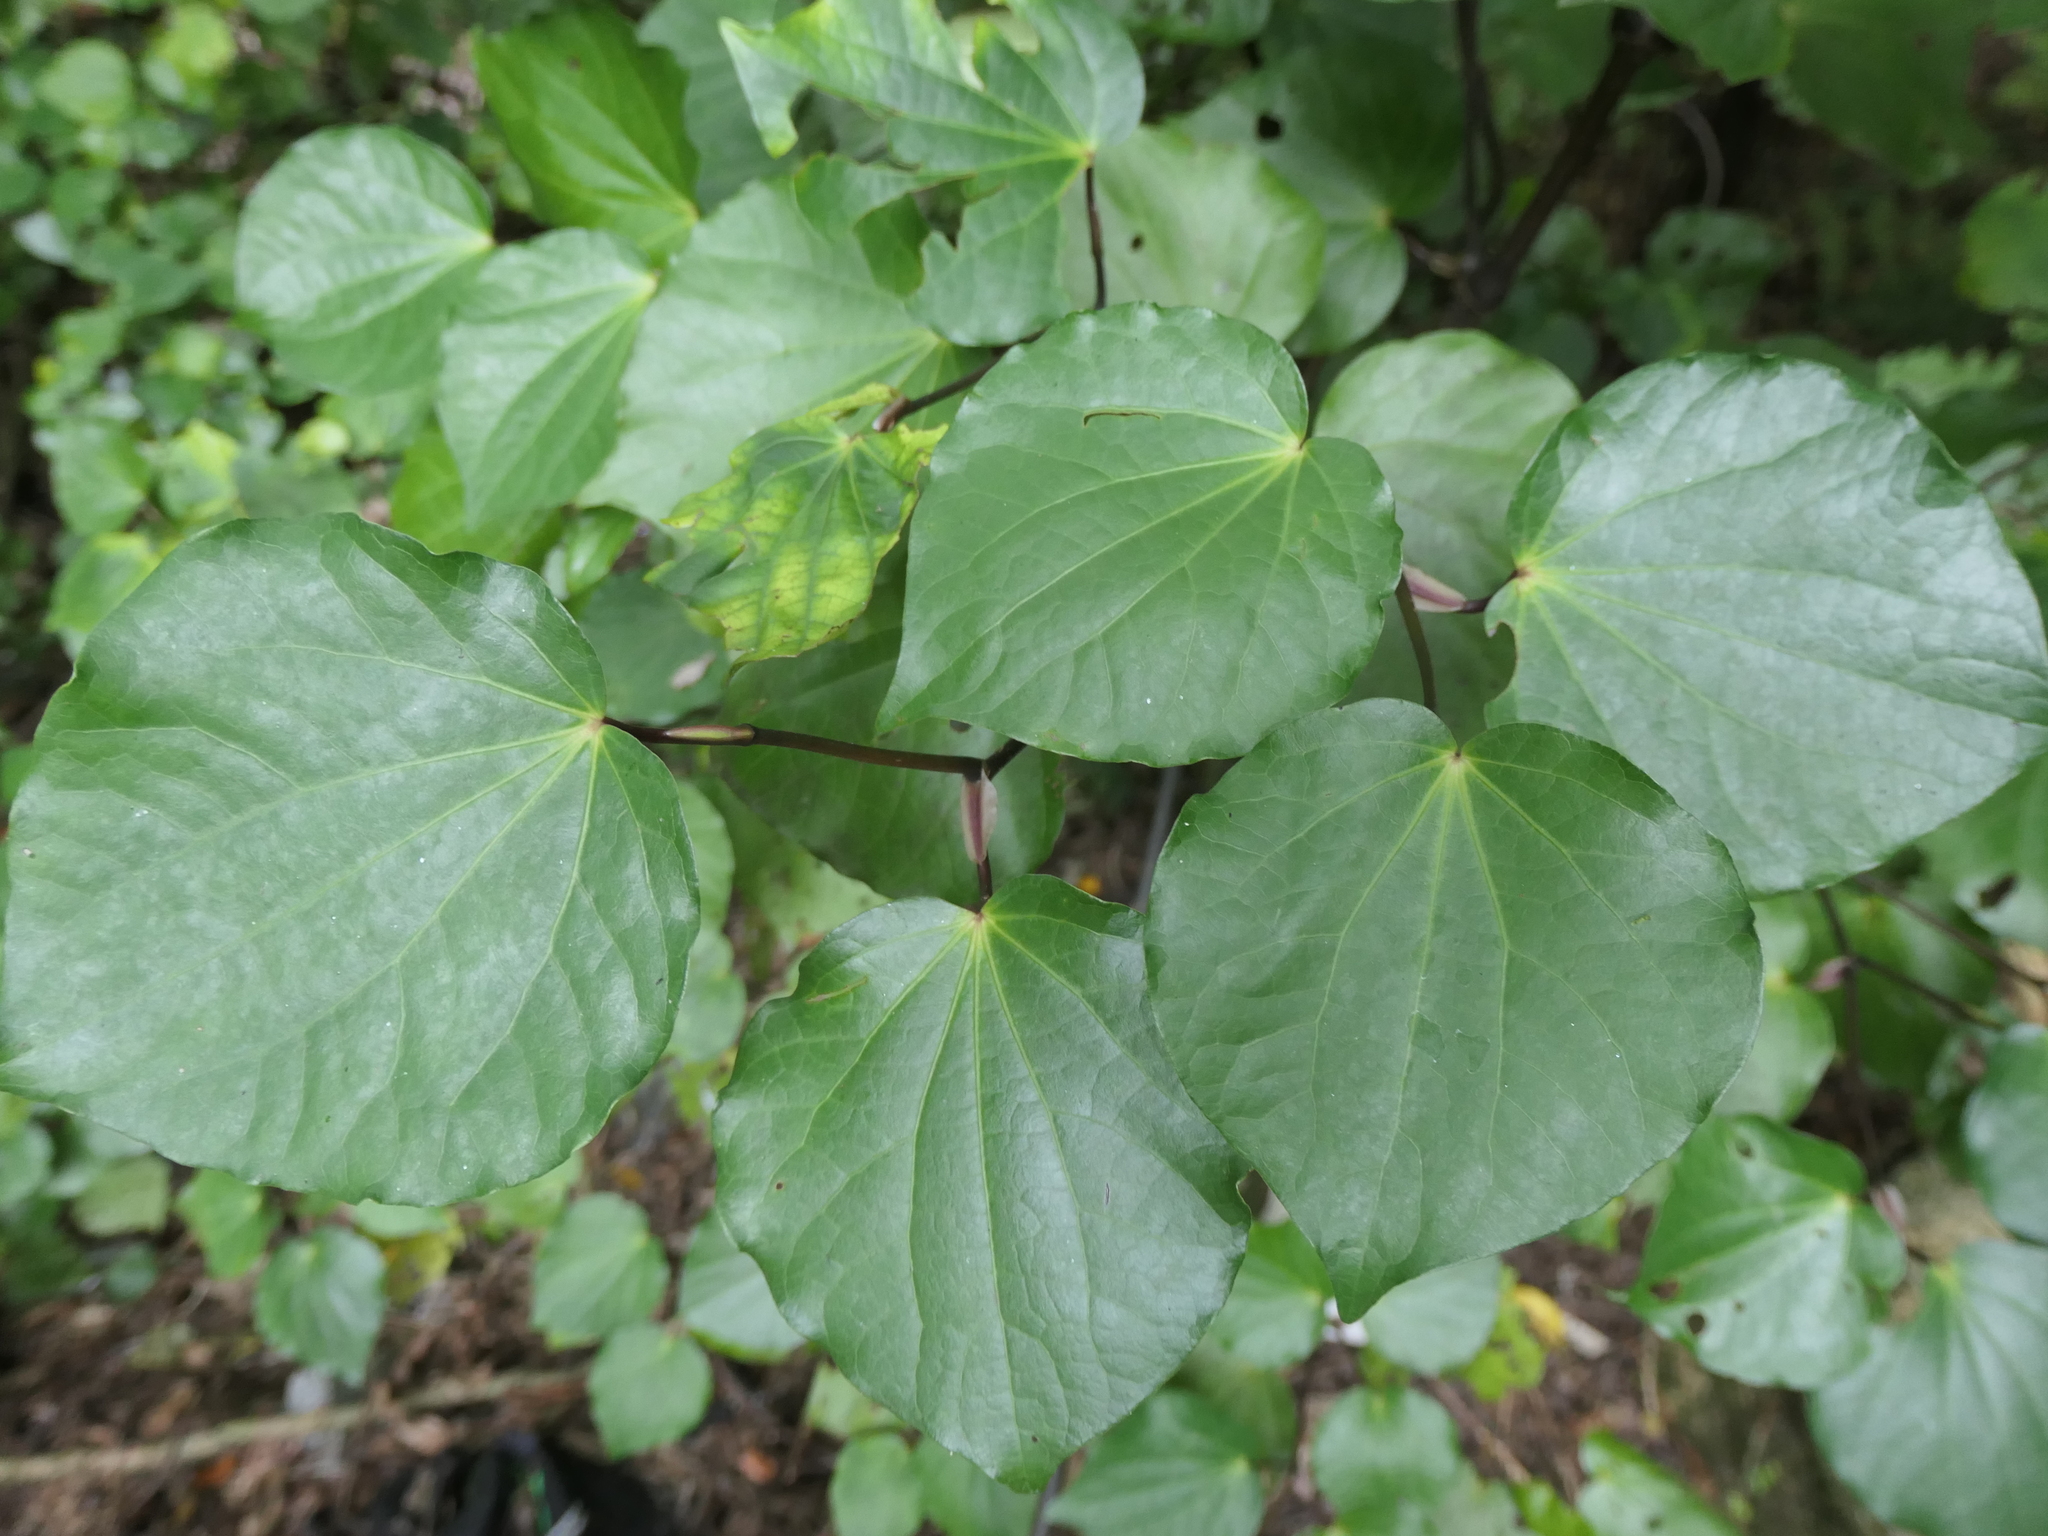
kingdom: Plantae
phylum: Tracheophyta
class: Magnoliopsida
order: Piperales
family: Piperaceae
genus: Macropiper
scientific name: Macropiper excelsum
